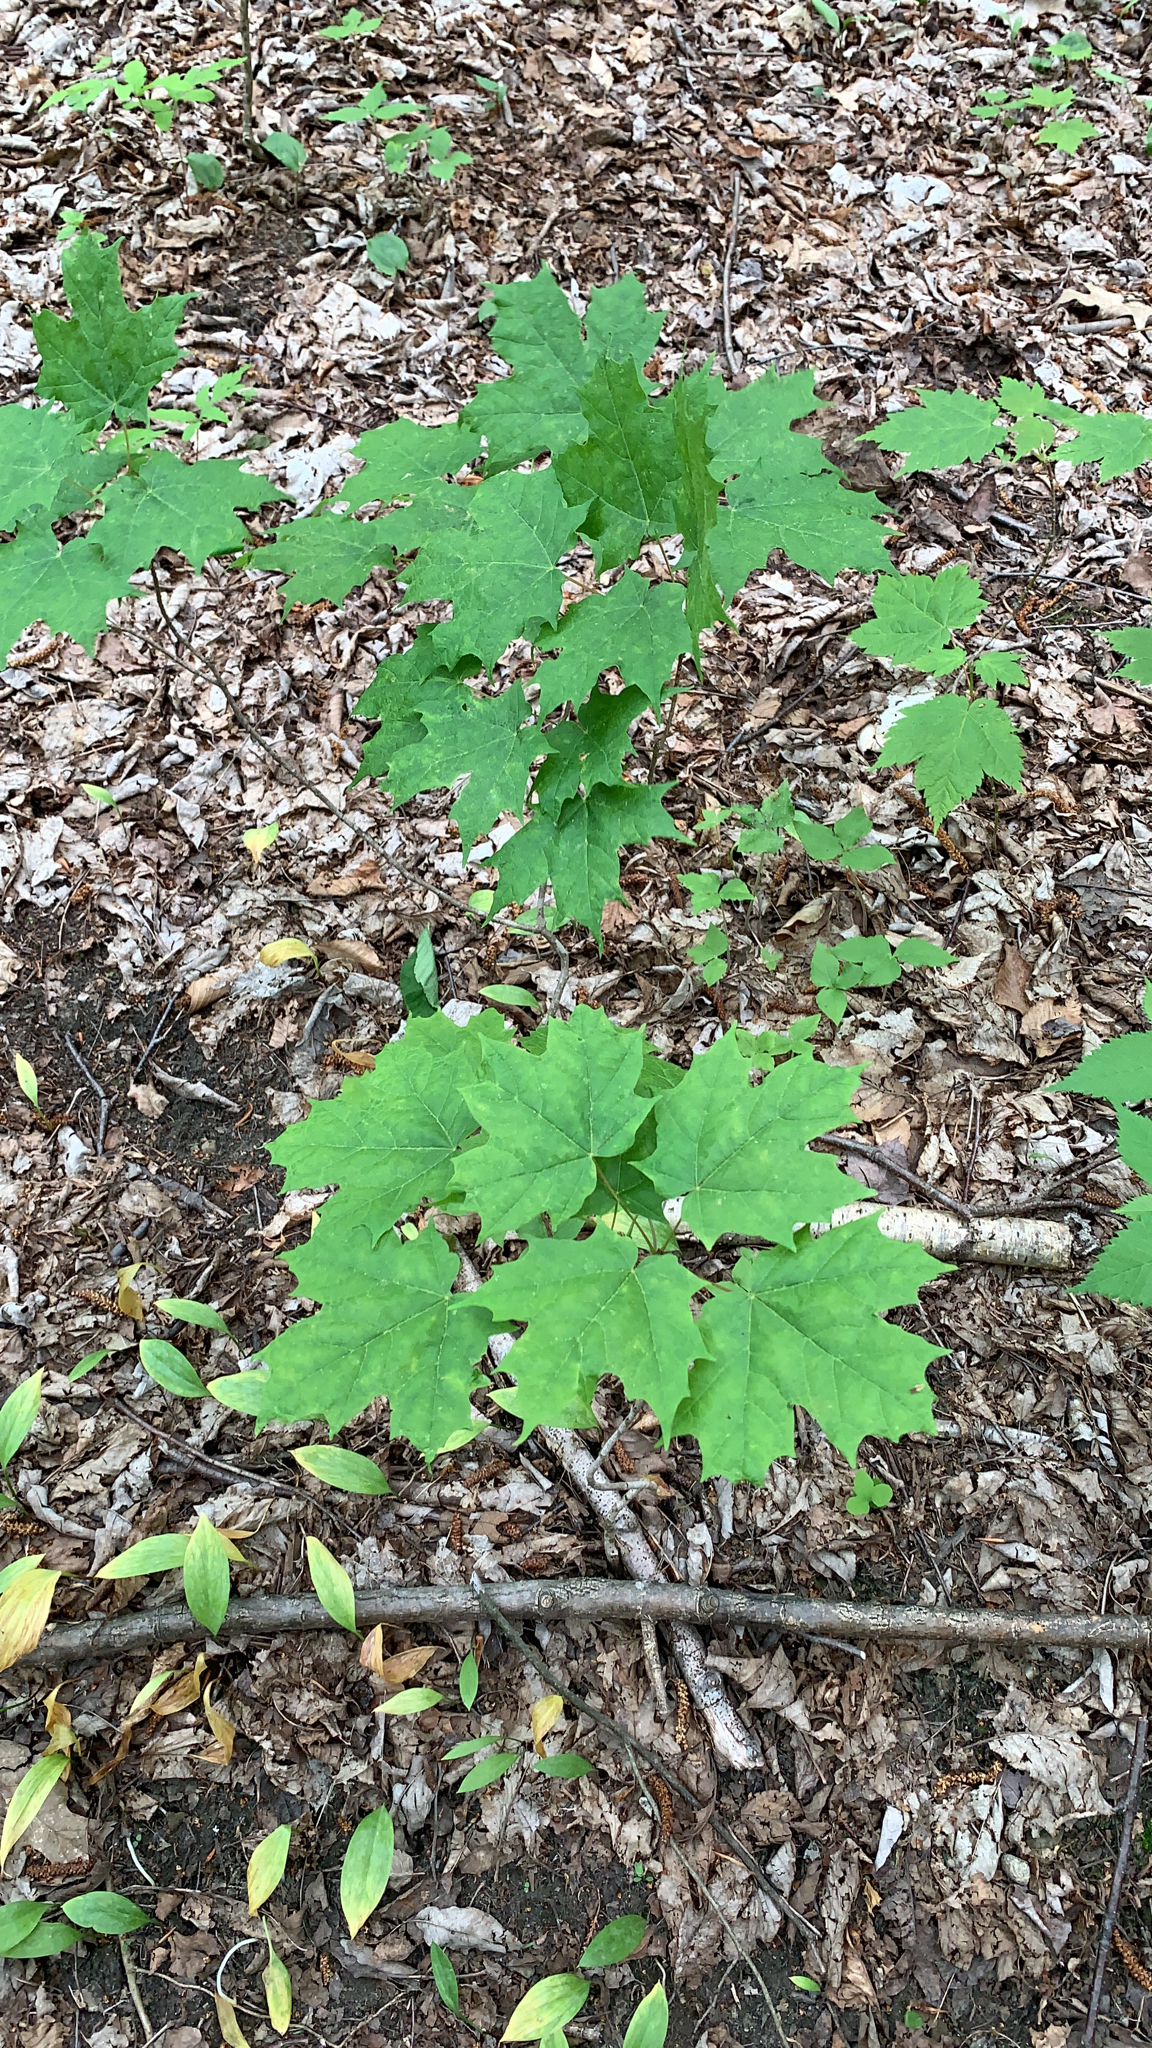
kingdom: Plantae
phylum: Tracheophyta
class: Magnoliopsida
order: Sapindales
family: Sapindaceae
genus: Acer
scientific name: Acer saccharum
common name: Sugar maple
